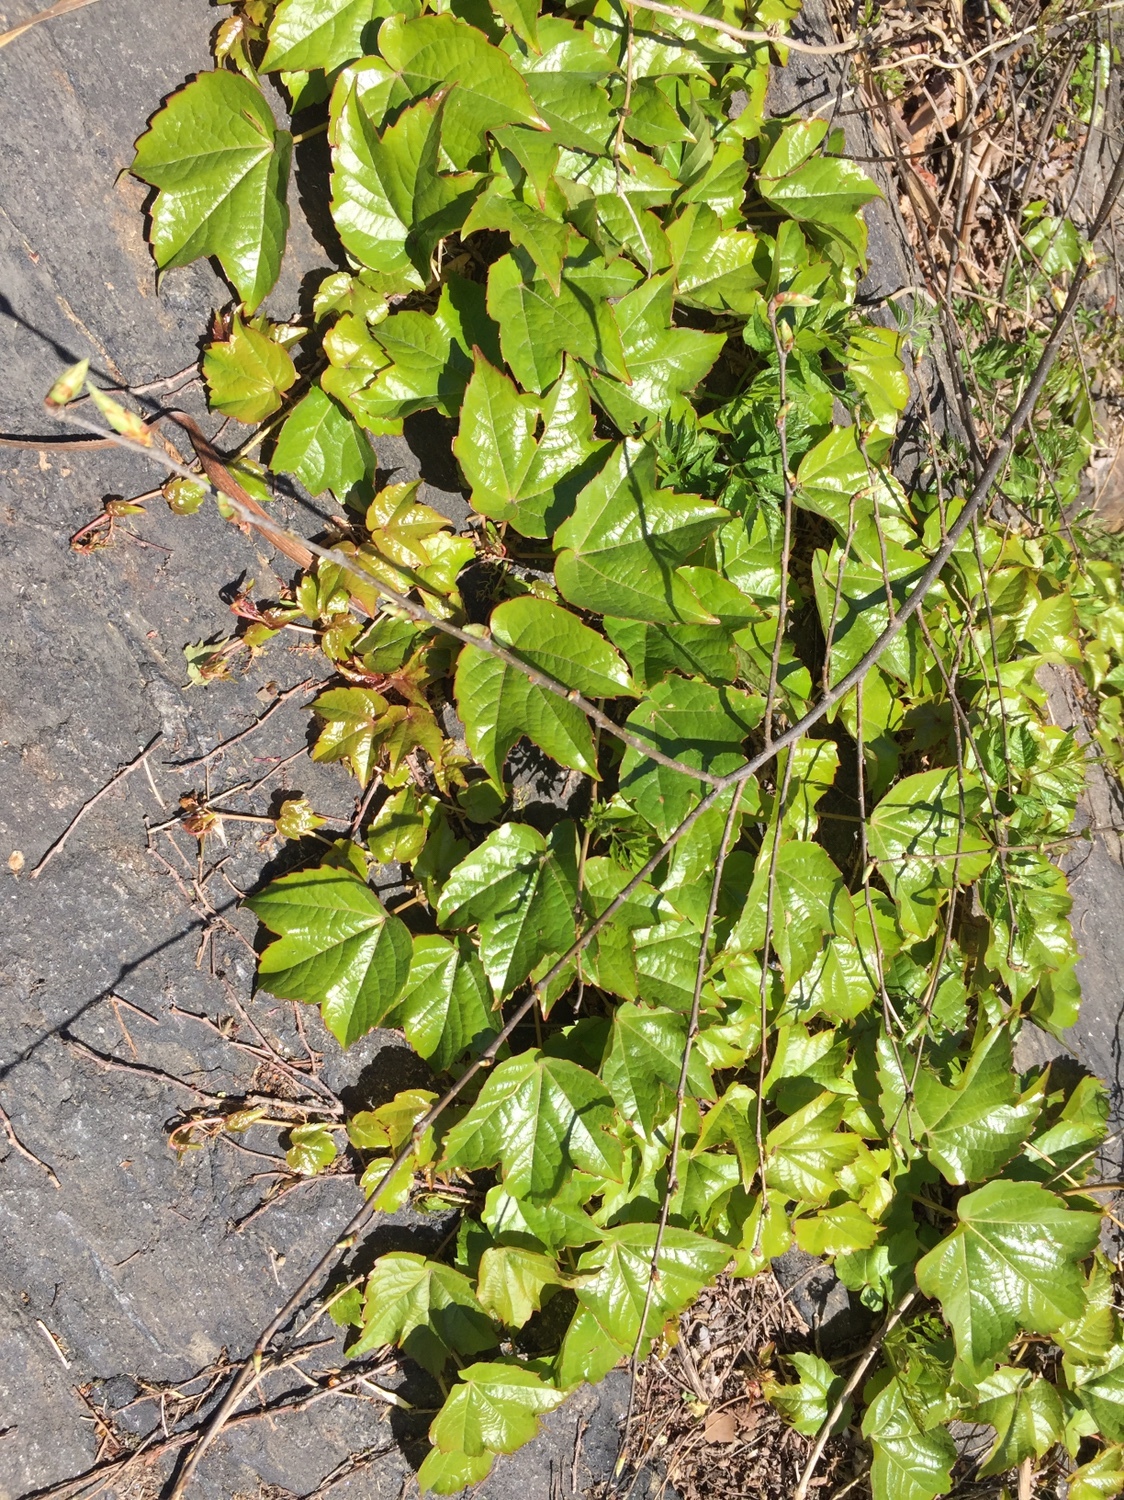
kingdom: Plantae
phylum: Tracheophyta
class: Magnoliopsida
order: Vitales
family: Vitaceae
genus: Parthenocissus
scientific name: Parthenocissus tricuspidata
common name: Boston ivy
